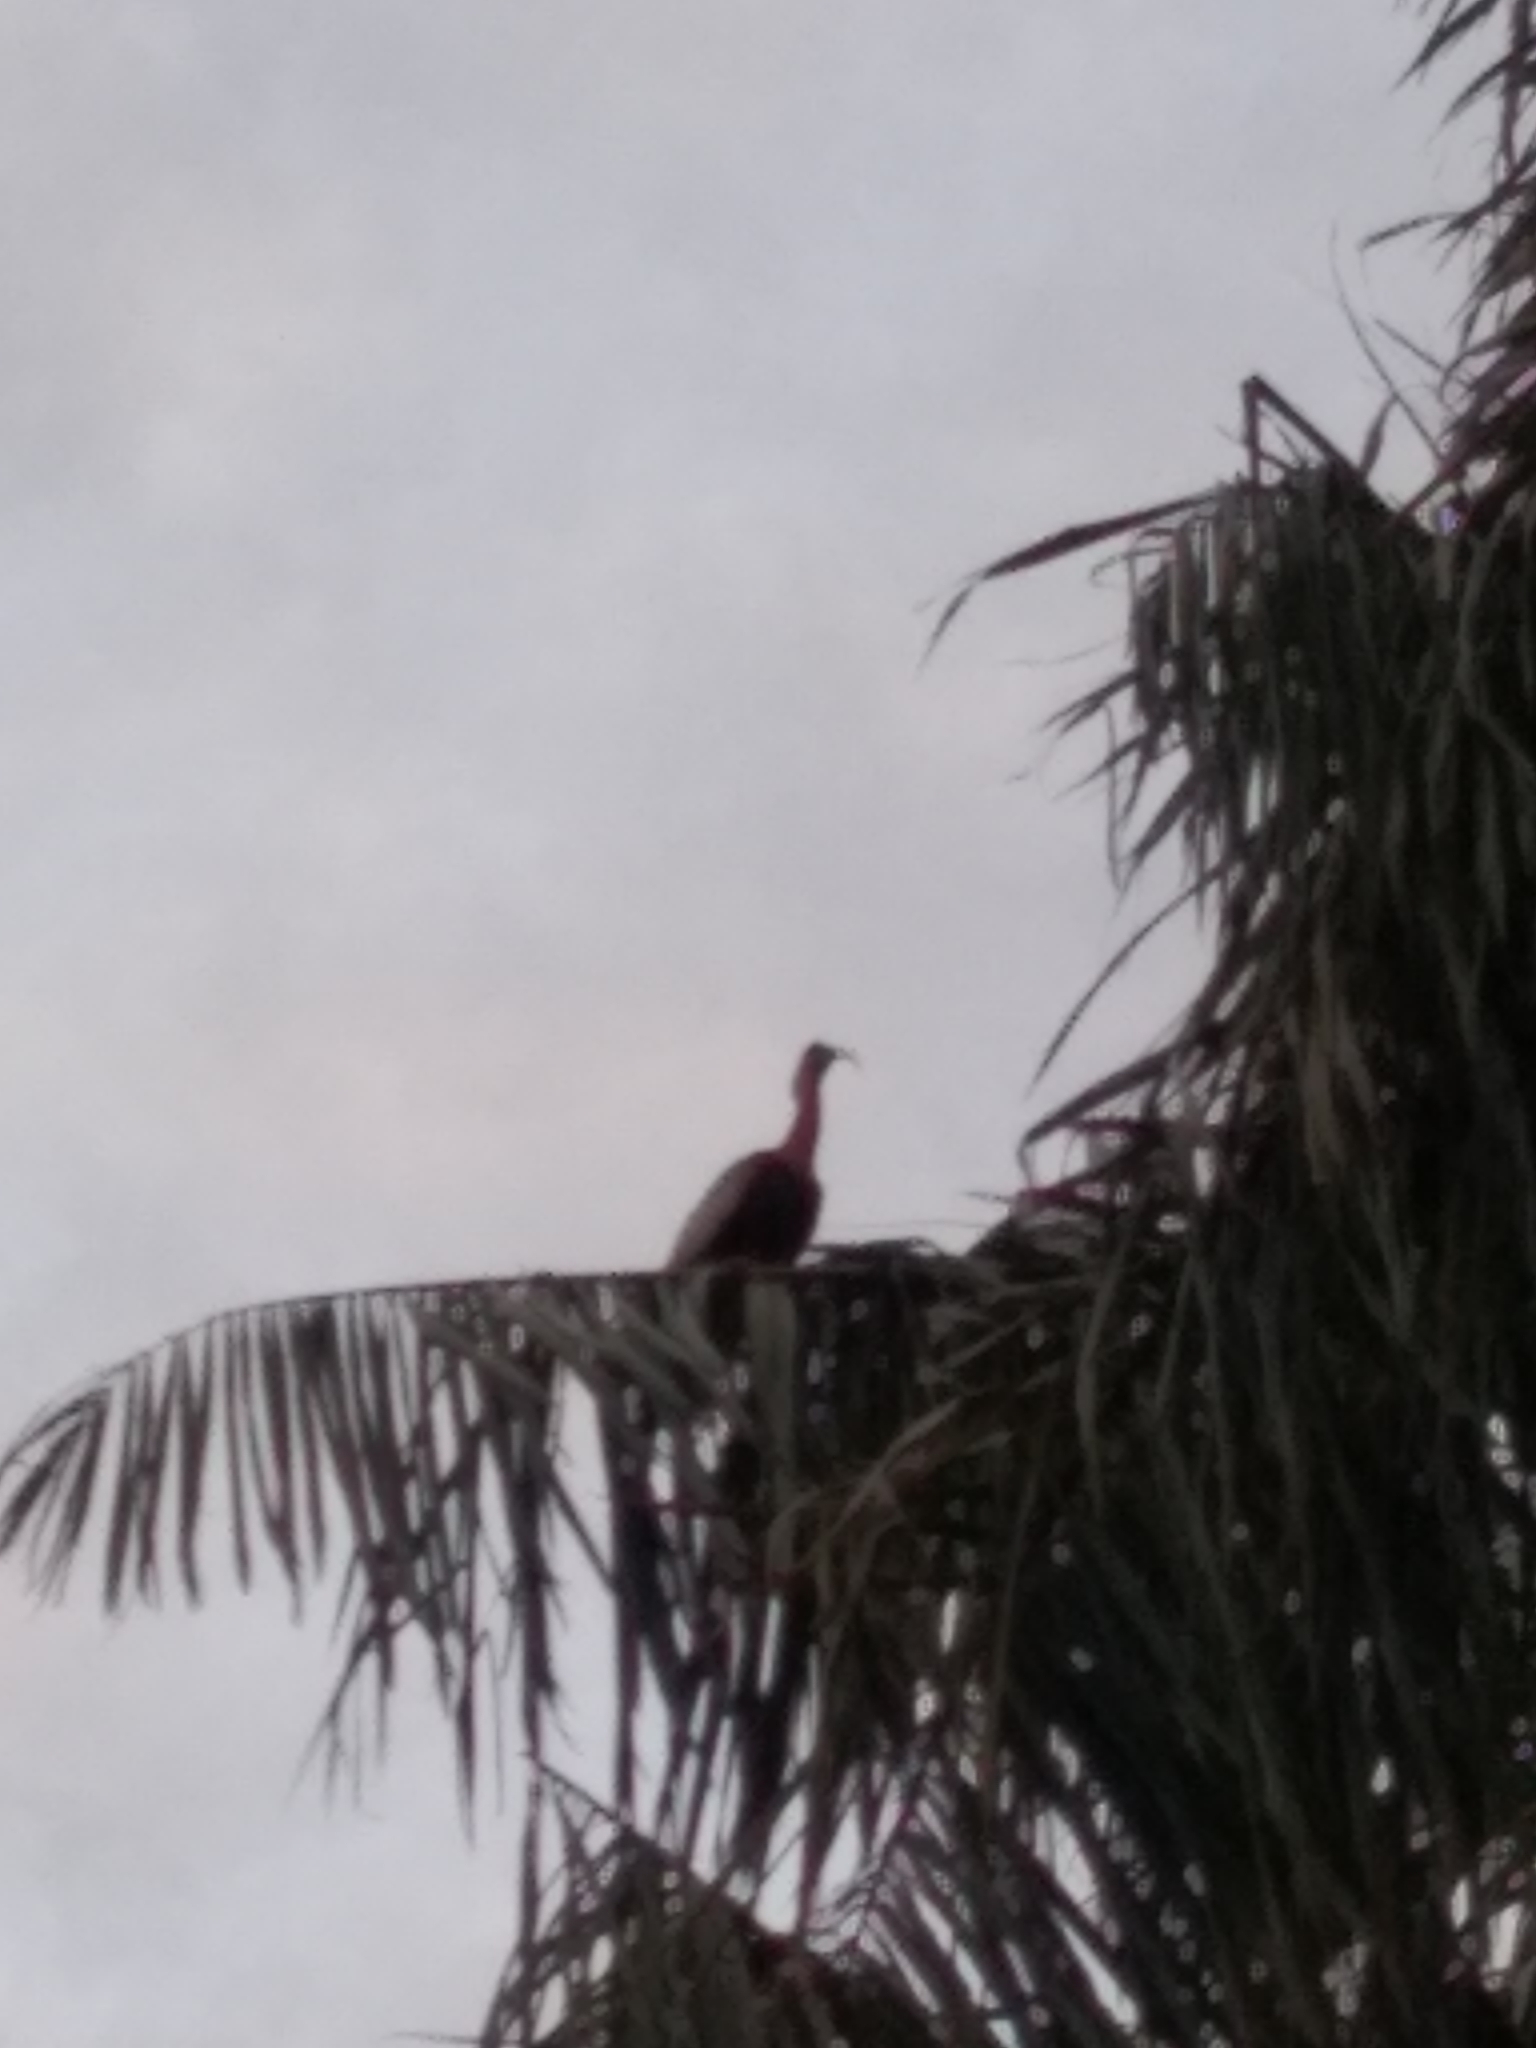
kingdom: Animalia
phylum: Chordata
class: Aves
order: Pelecaniformes
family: Threskiornithidae
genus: Theristicus
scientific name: Theristicus caudatus
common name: Buff-necked ibis
